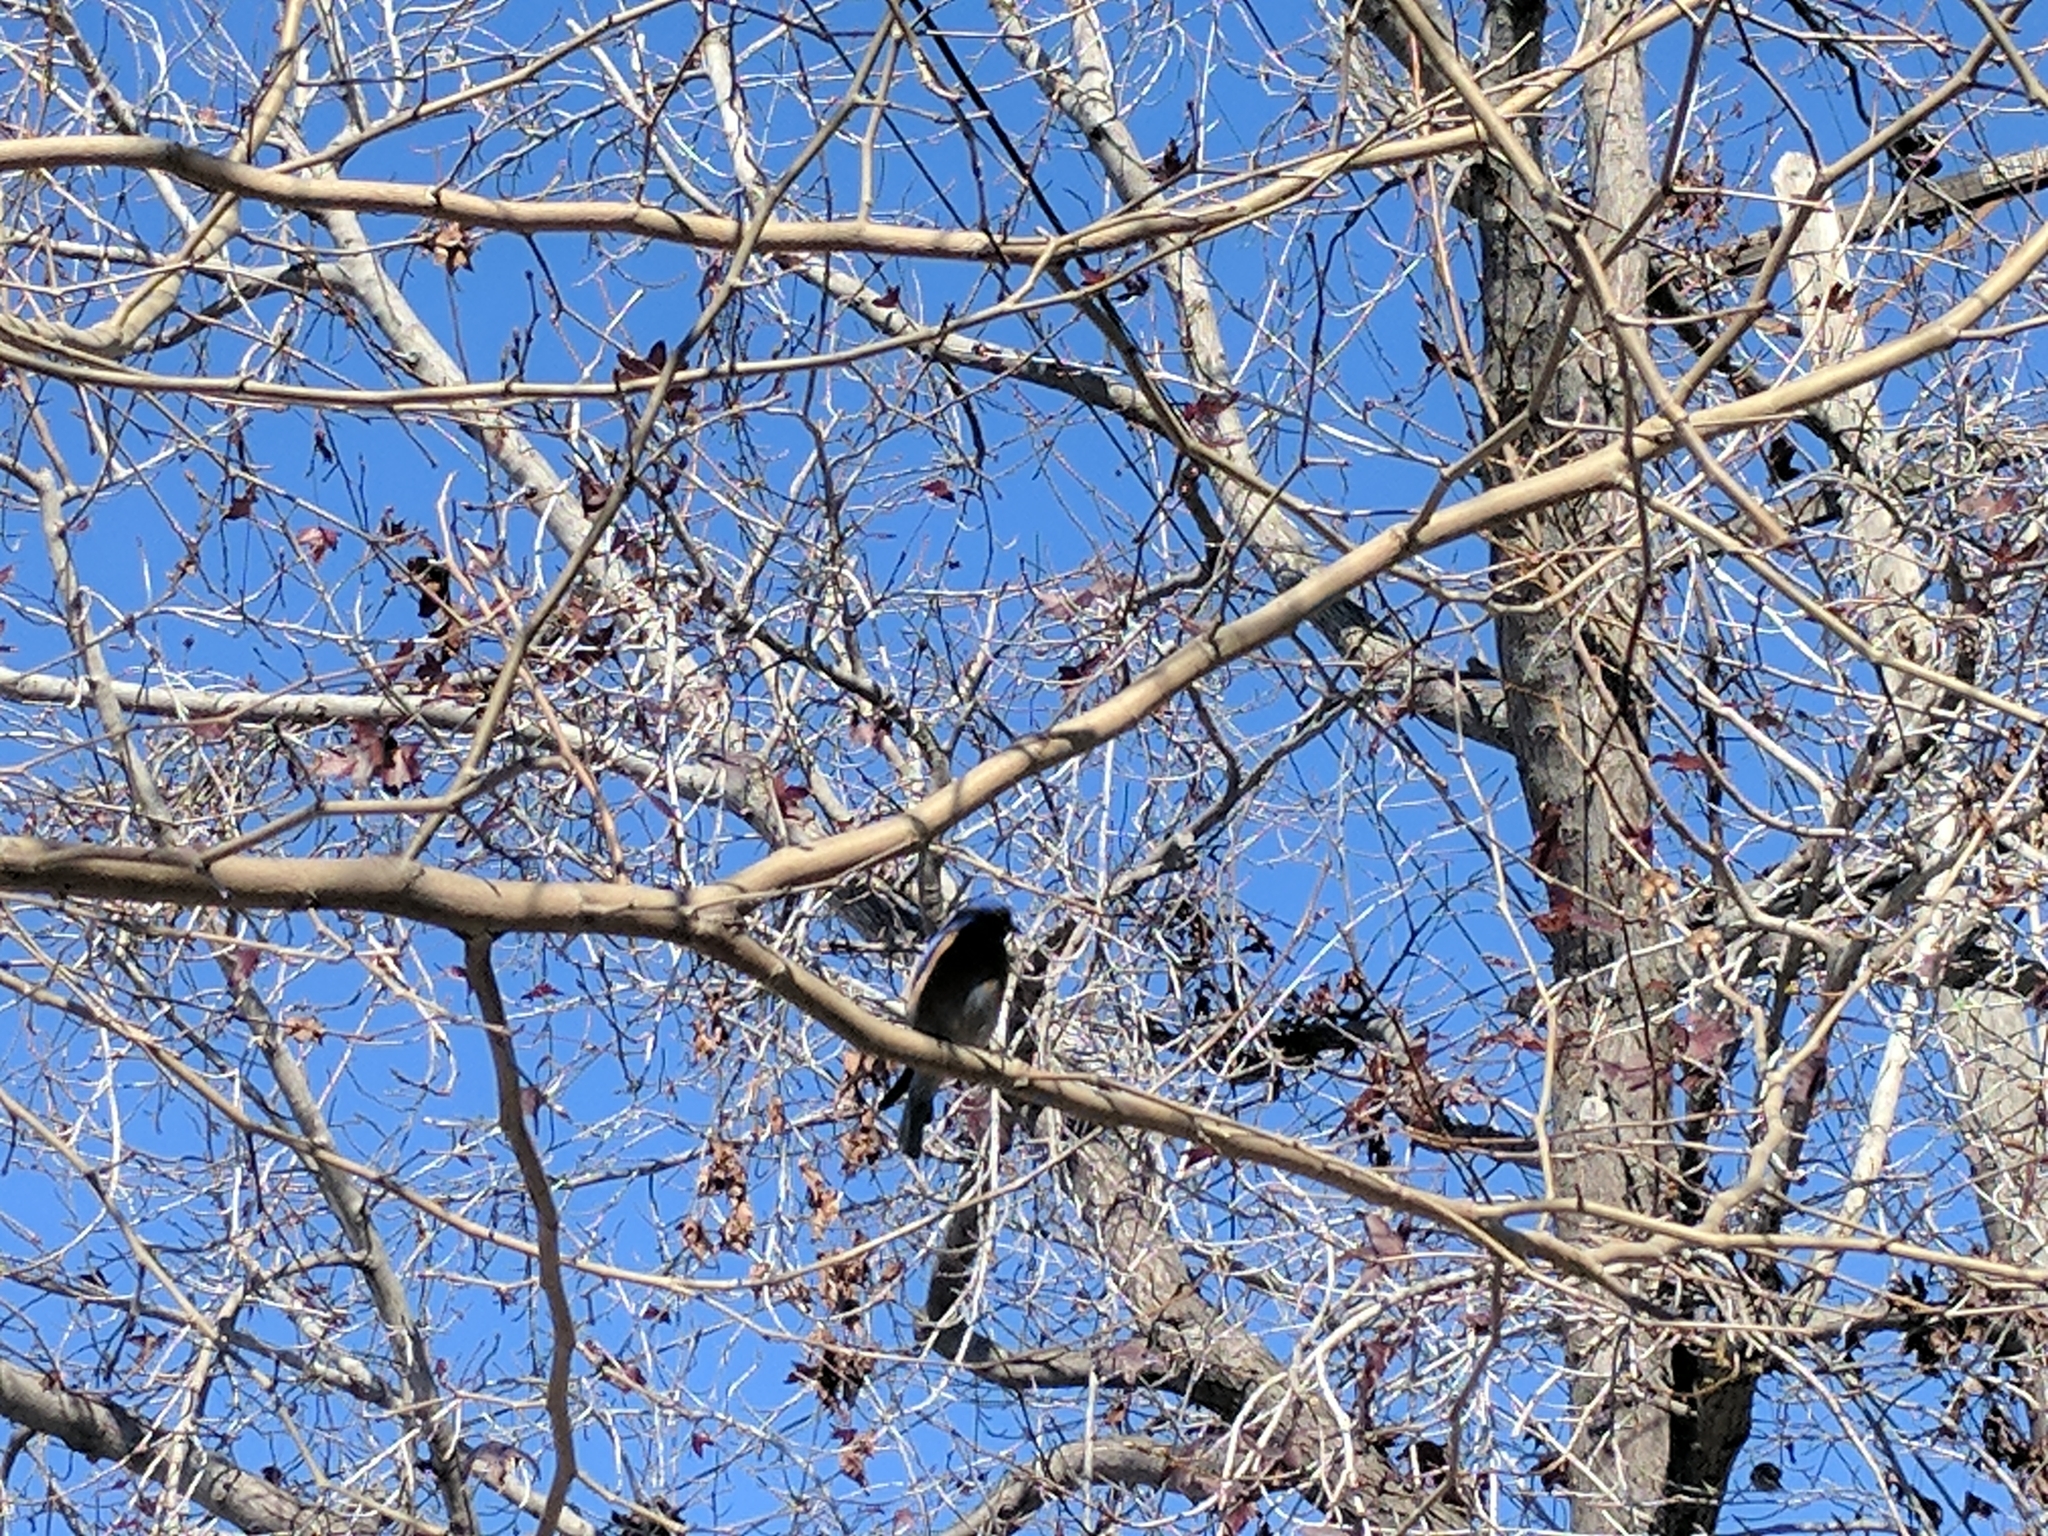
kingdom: Animalia
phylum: Chordata
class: Aves
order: Passeriformes
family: Turdidae
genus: Sialia
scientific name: Sialia mexicana
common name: Western bluebird
